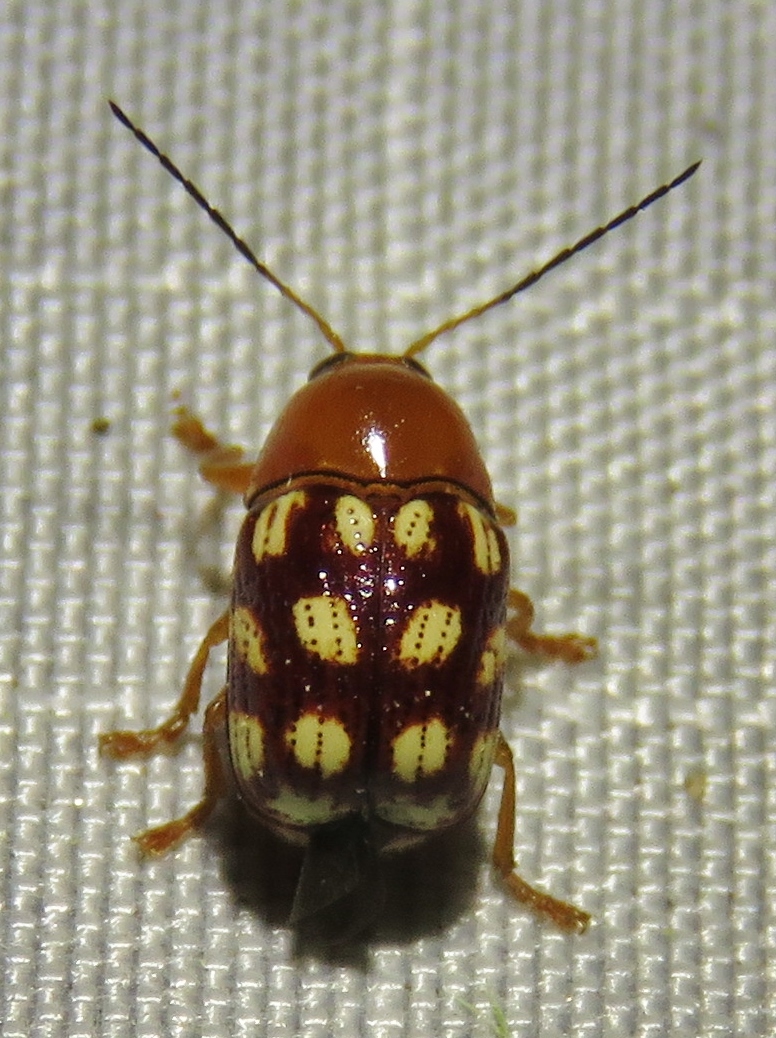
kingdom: Animalia
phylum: Arthropoda
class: Insecta
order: Coleoptera
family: Chrysomelidae
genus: Cryptocephalus
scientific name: Cryptocephalus guttulatus
